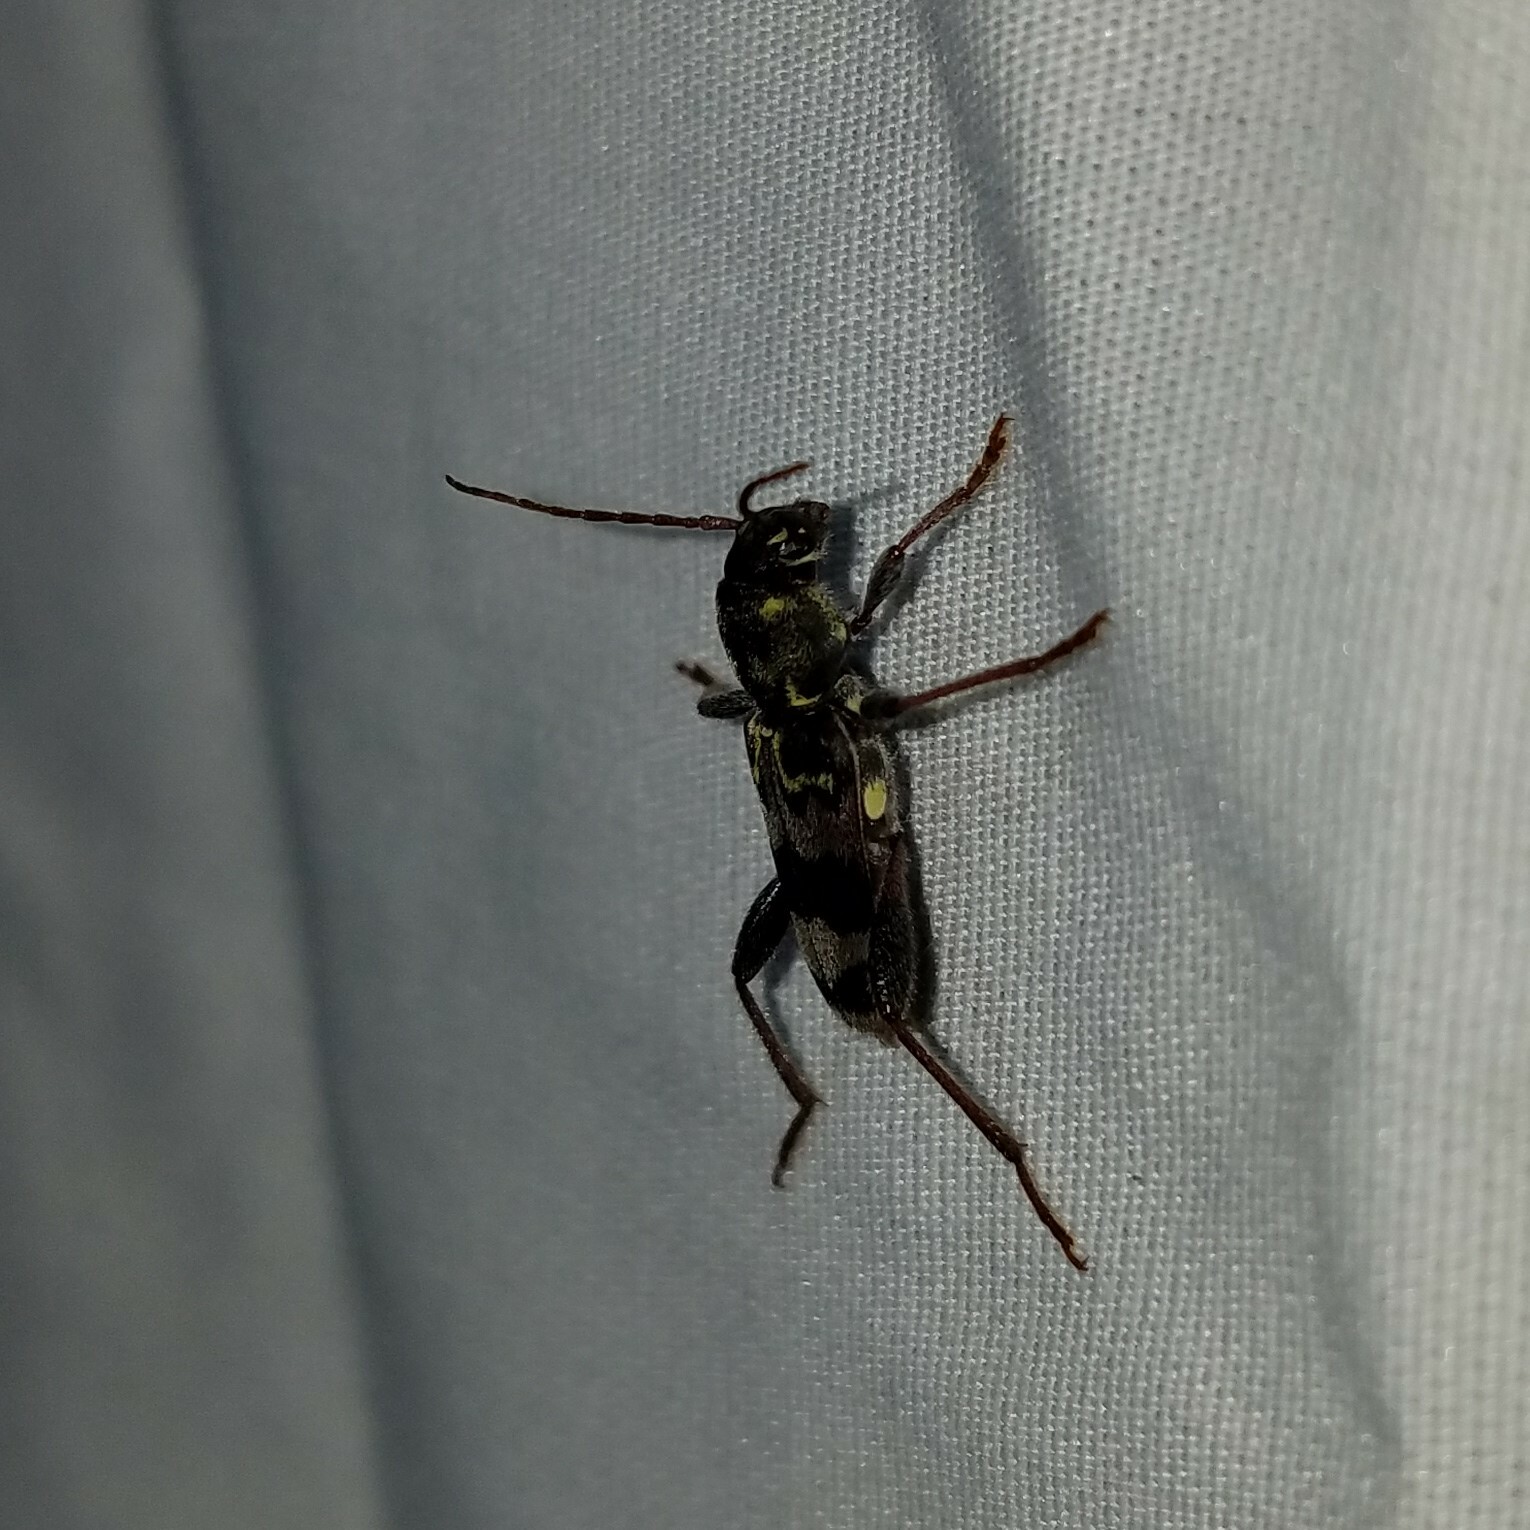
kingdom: Animalia
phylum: Arthropoda
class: Insecta
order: Coleoptera
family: Cerambycidae
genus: Xylotrechus
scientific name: Xylotrechus colonus
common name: Long-horned beetle
